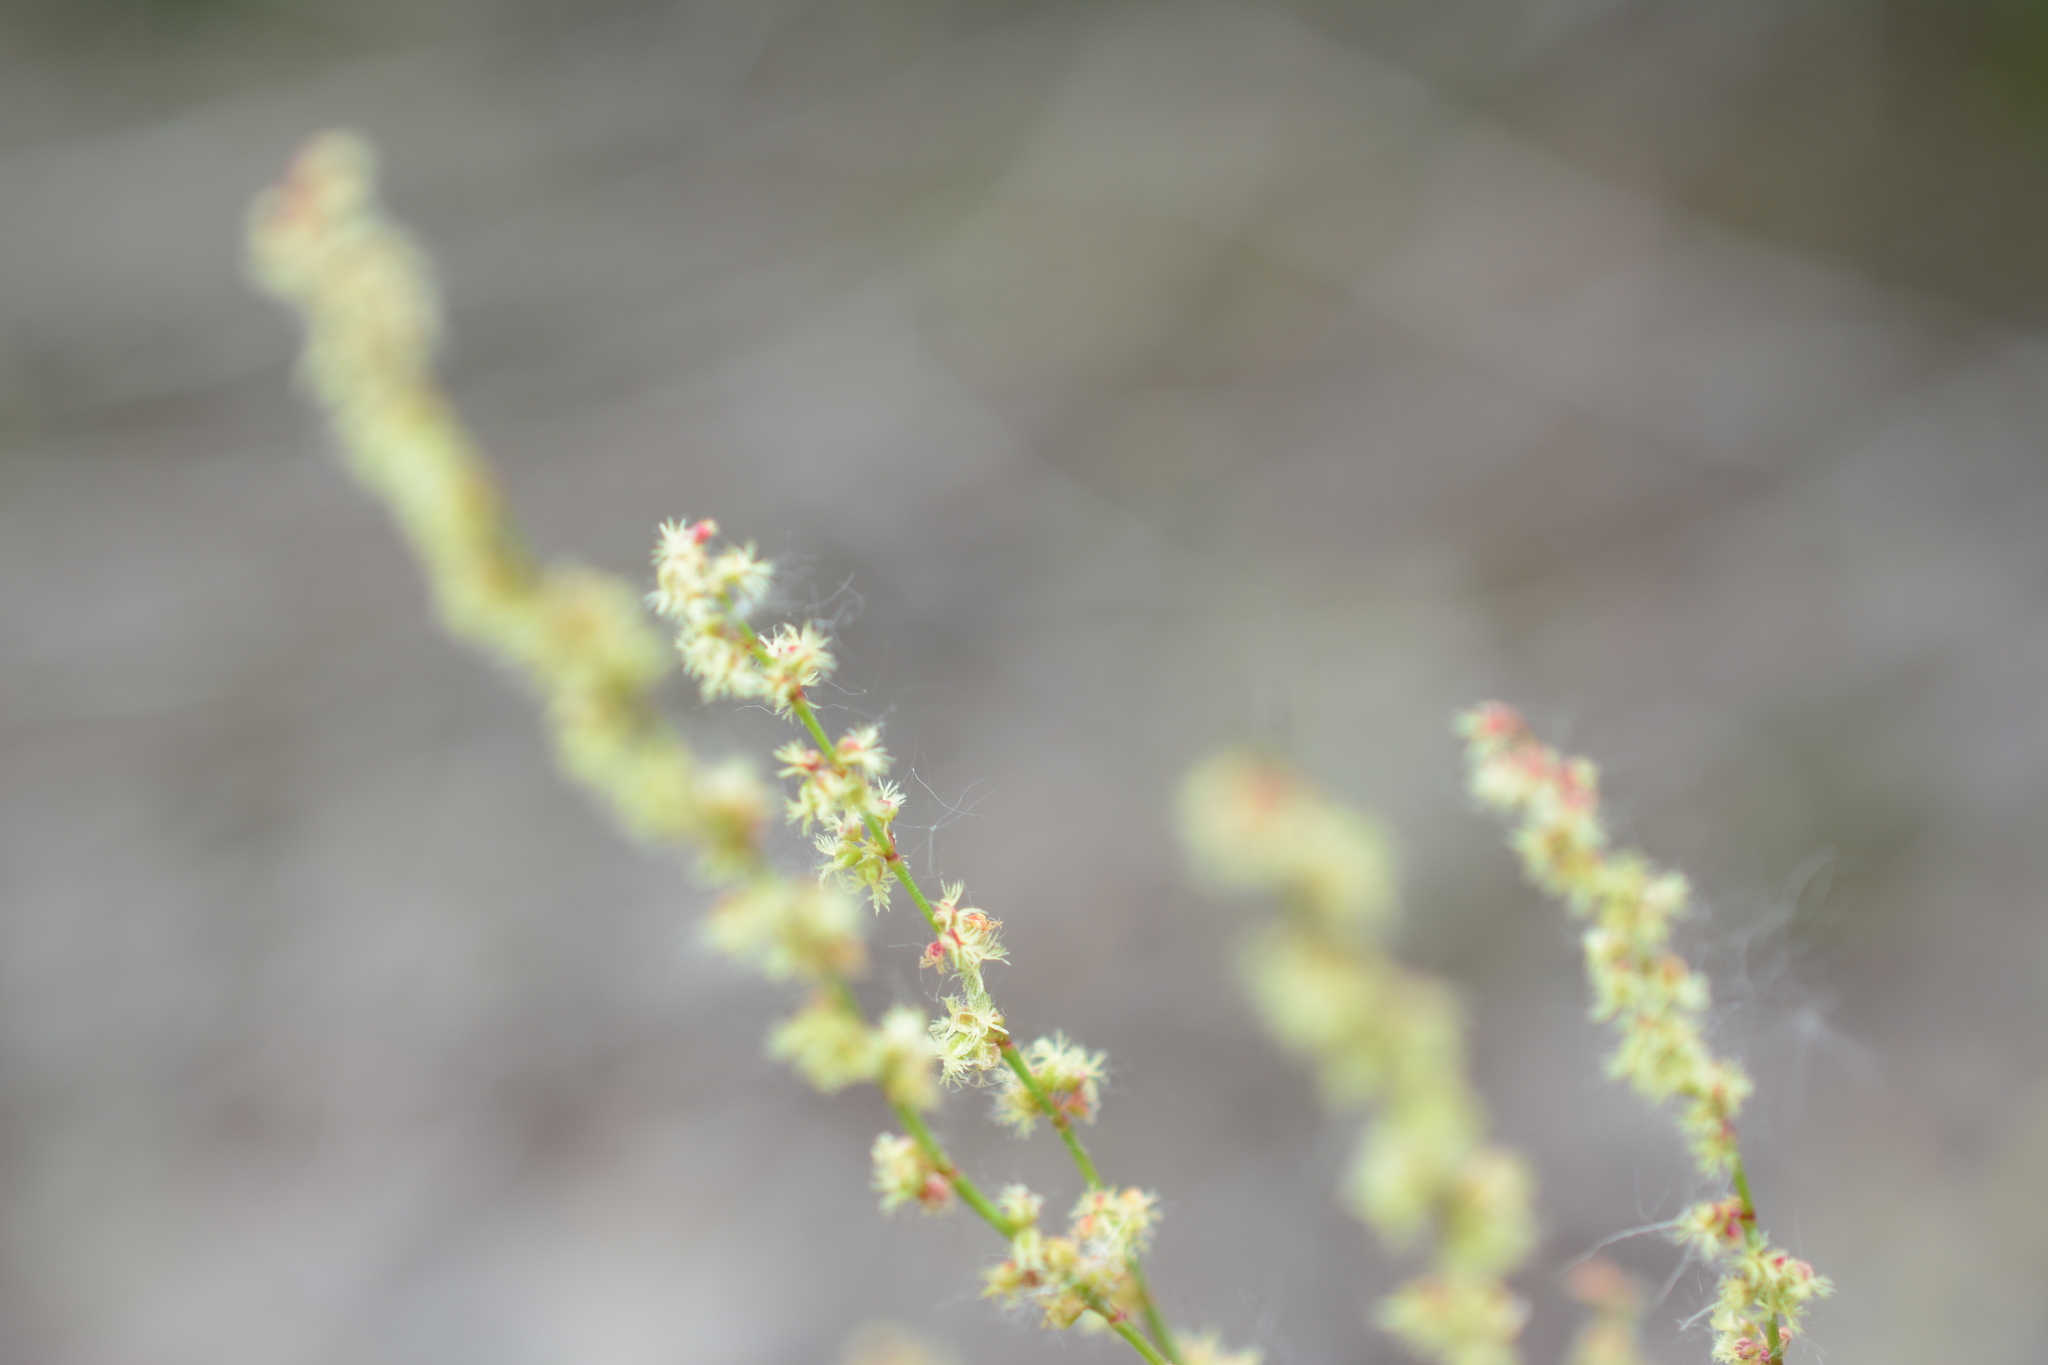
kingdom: Plantae
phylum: Tracheophyta
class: Magnoliopsida
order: Caryophyllales
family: Polygonaceae
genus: Rumex
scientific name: Rumex acetosella
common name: Common sheep sorrel
